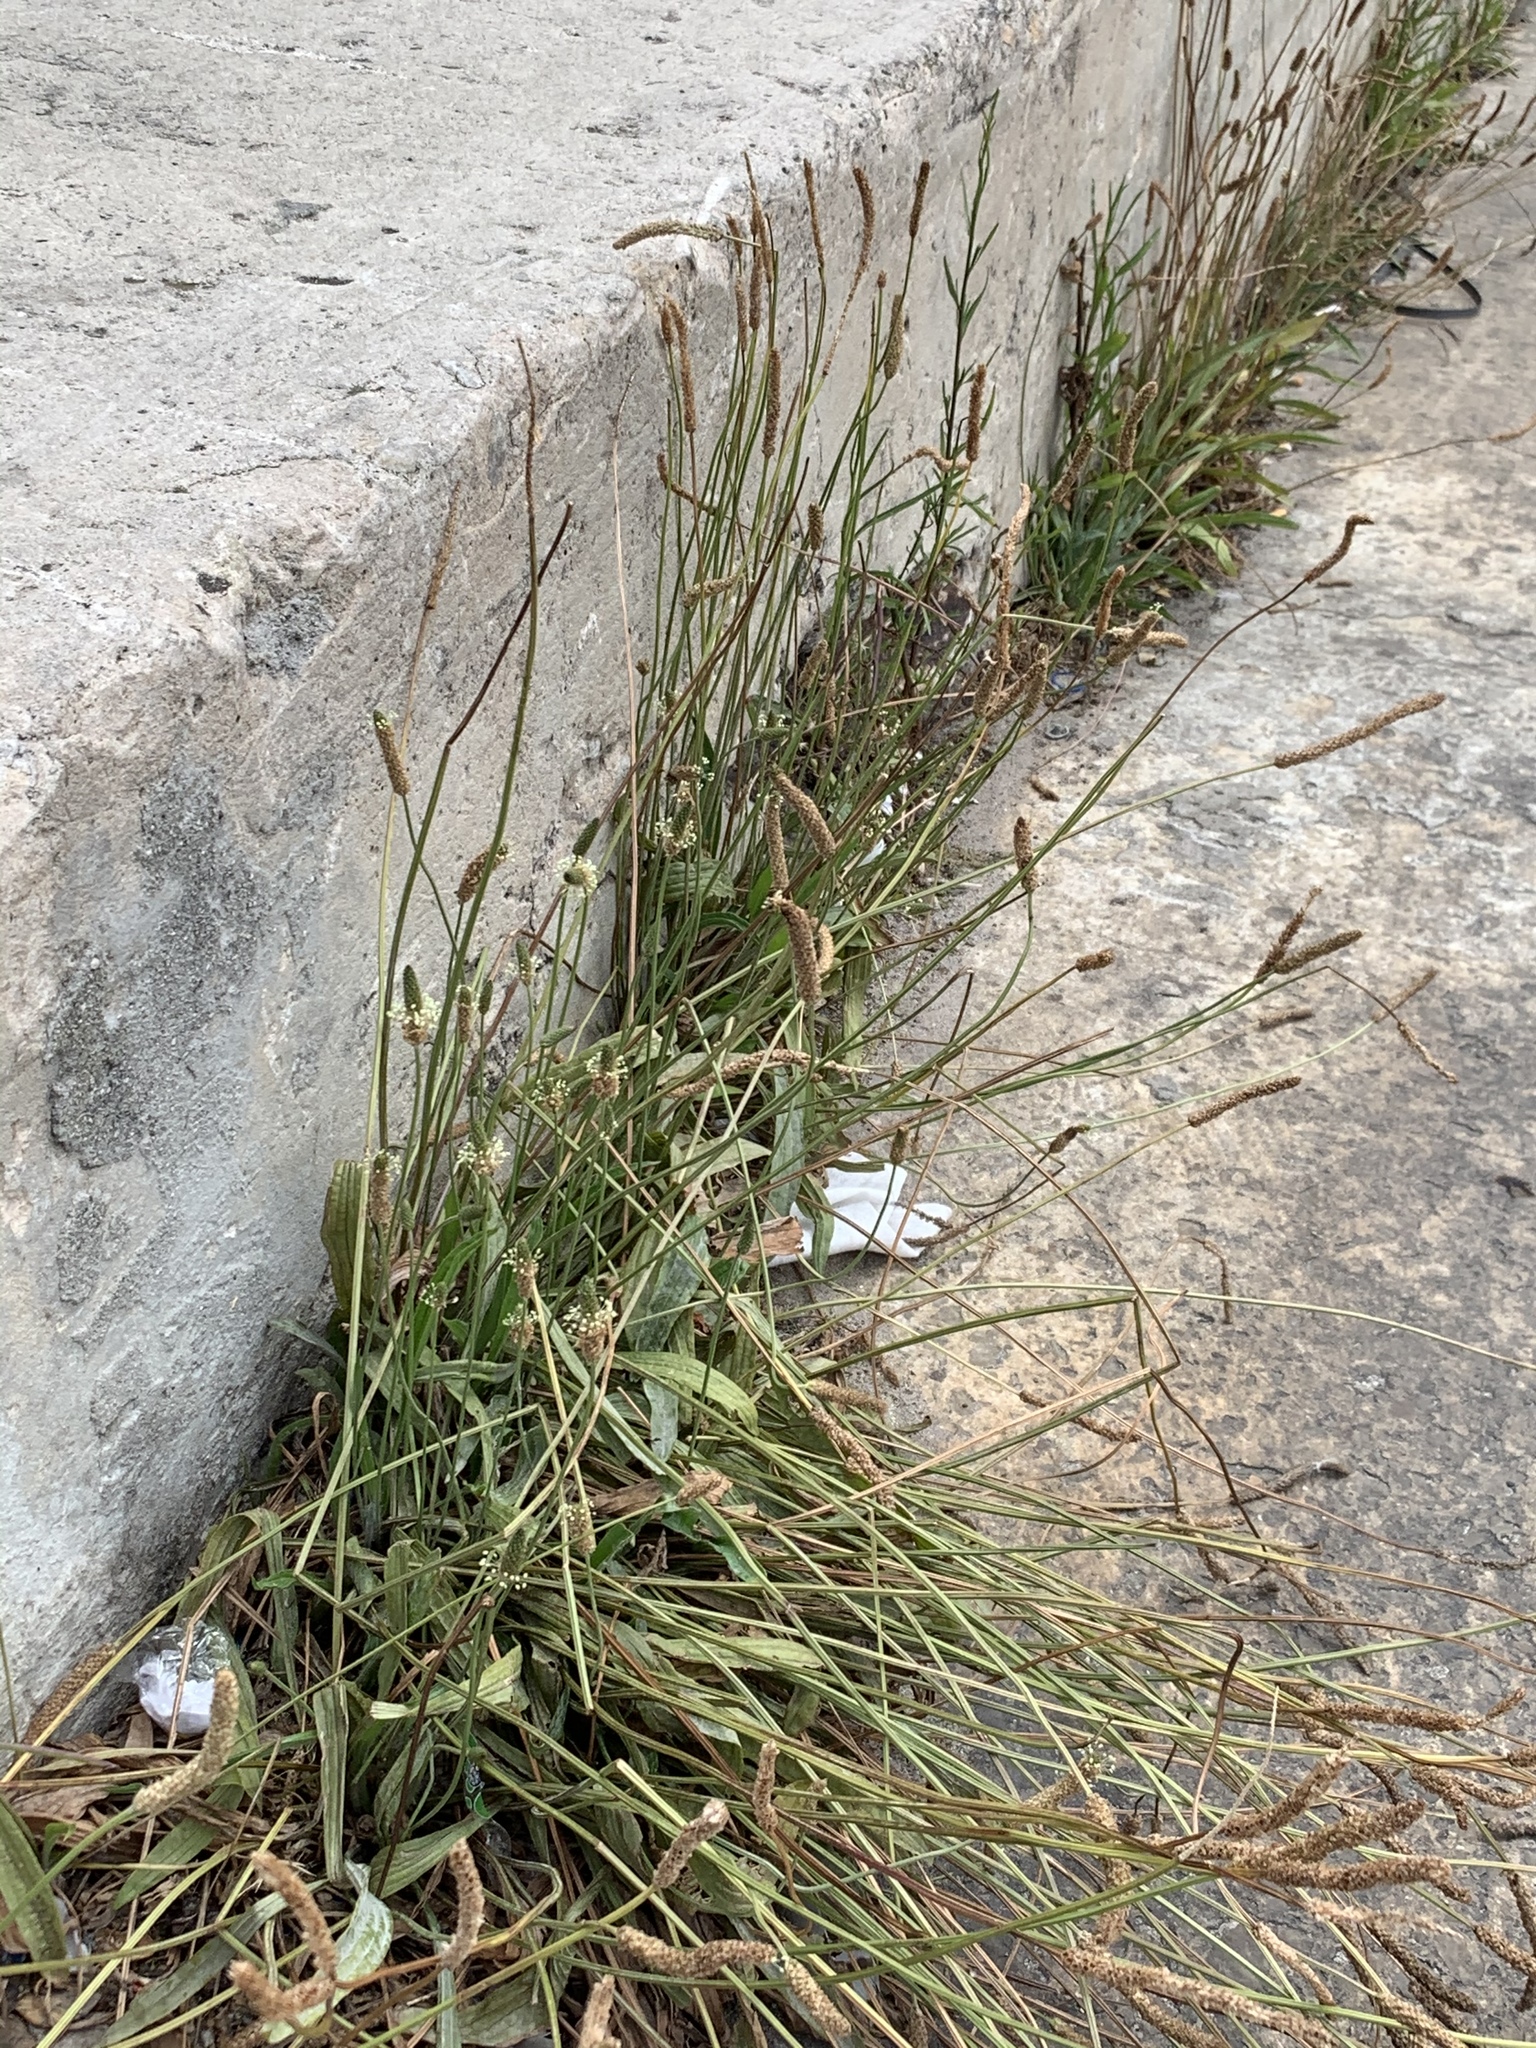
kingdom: Plantae
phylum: Tracheophyta
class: Magnoliopsida
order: Lamiales
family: Plantaginaceae
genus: Plantago
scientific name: Plantago lanceolata
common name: Ribwort plantain
